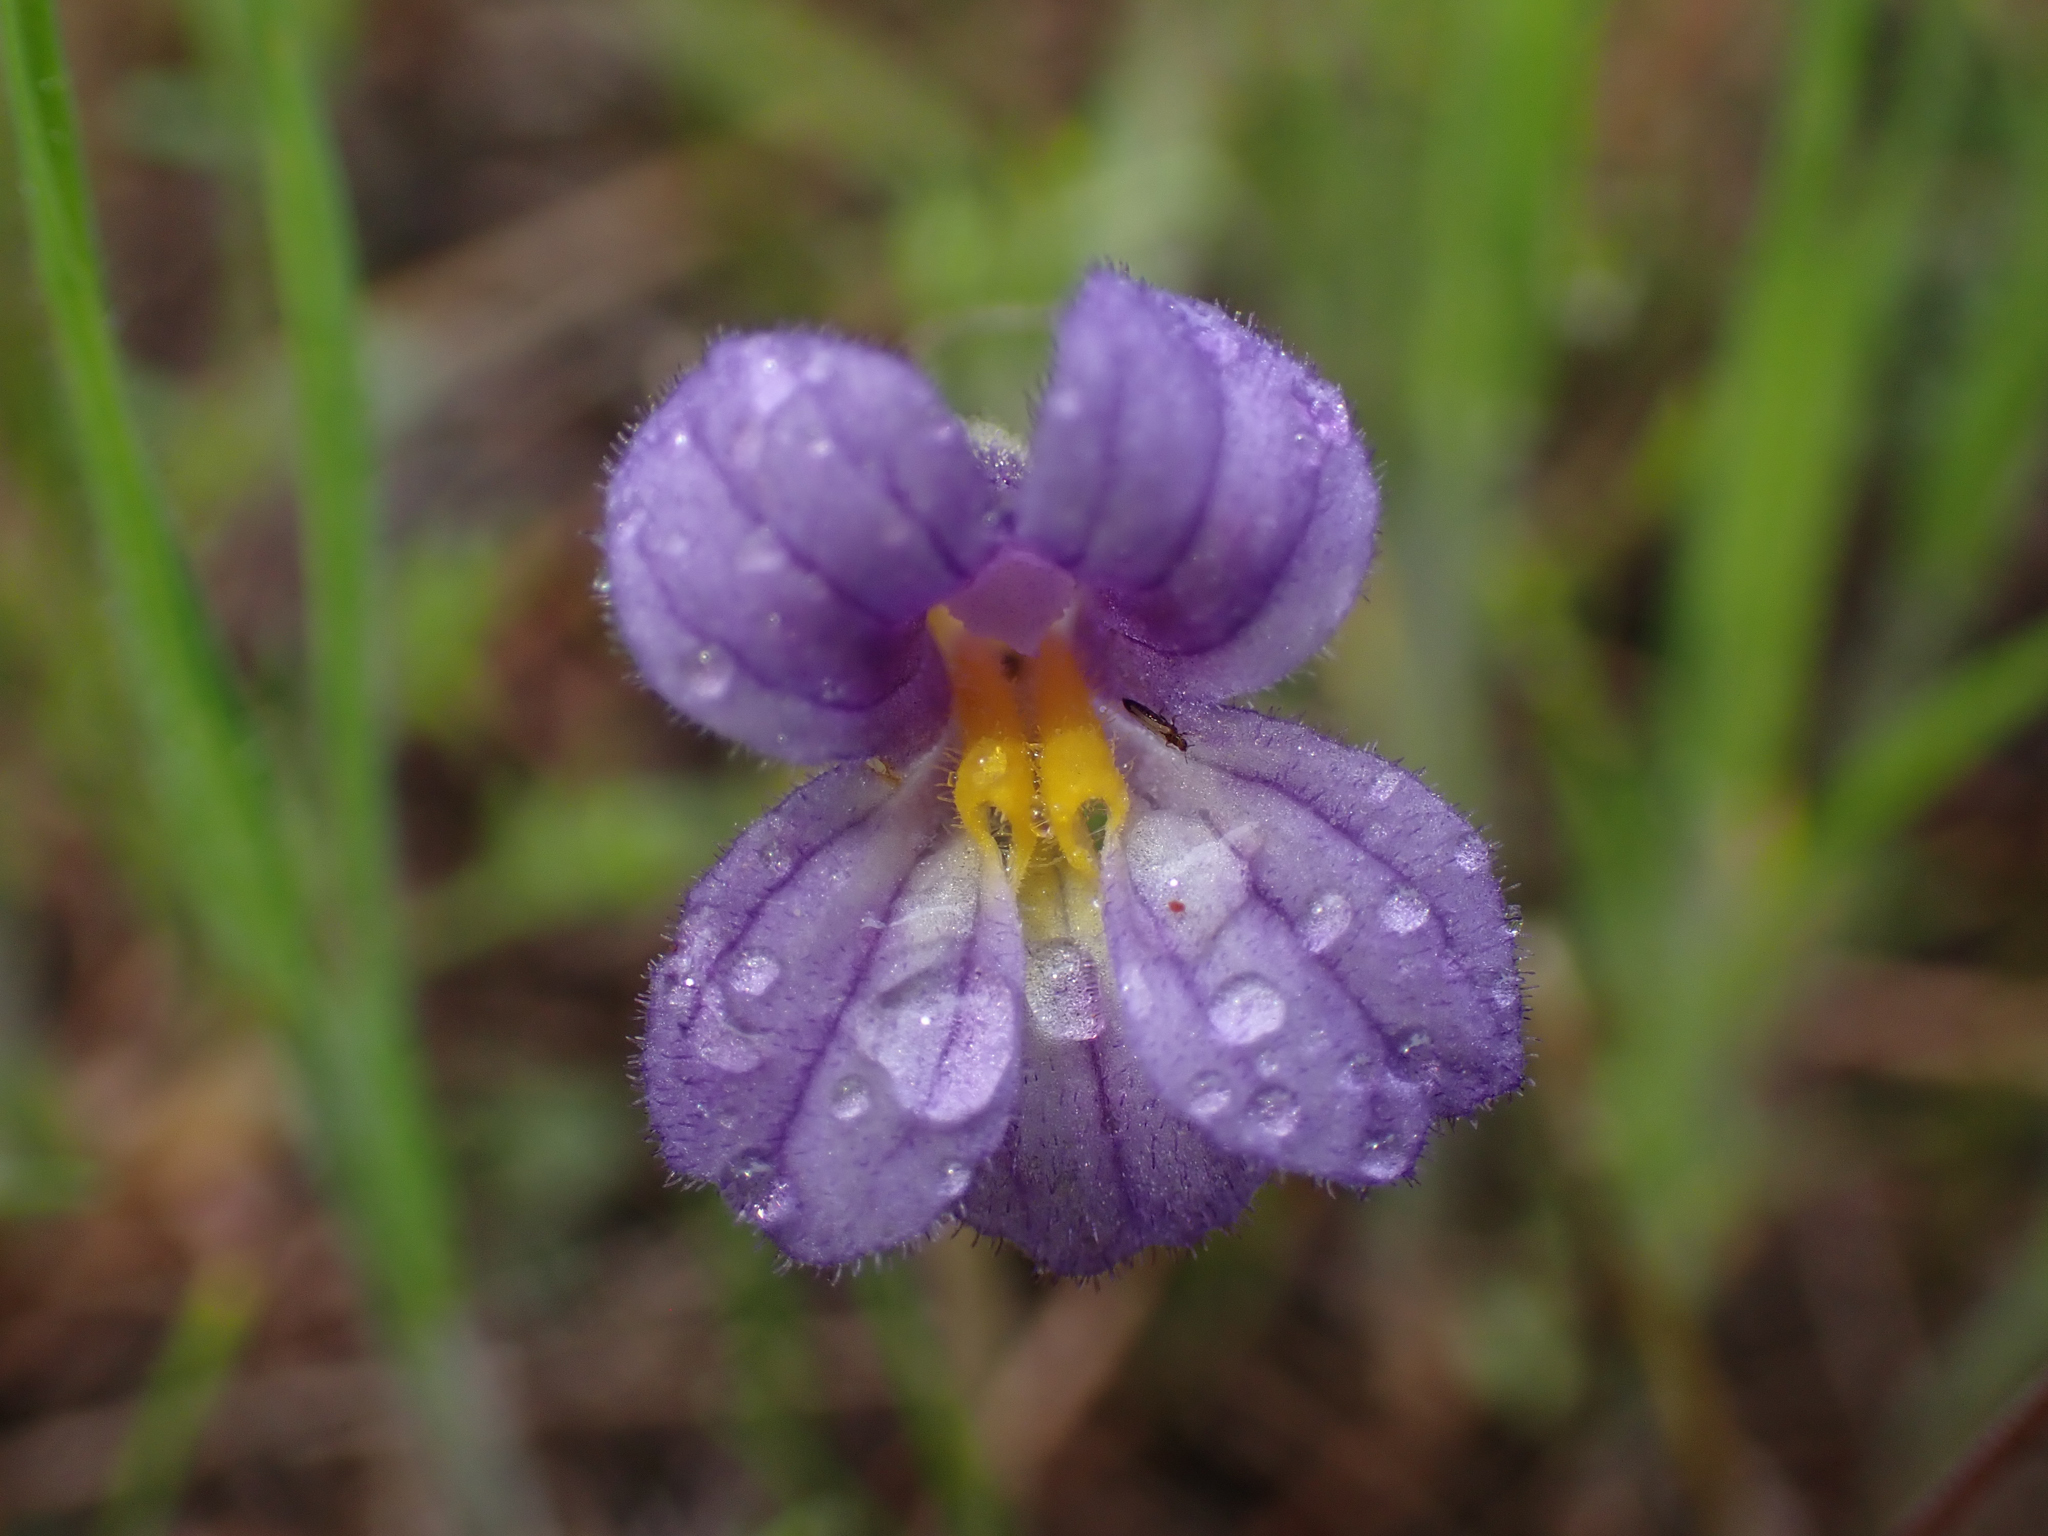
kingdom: Plantae
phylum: Tracheophyta
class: Magnoliopsida
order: Lamiales
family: Orobanchaceae
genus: Aphyllon
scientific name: Aphyllon uniflorum
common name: One-flowered broomrape
